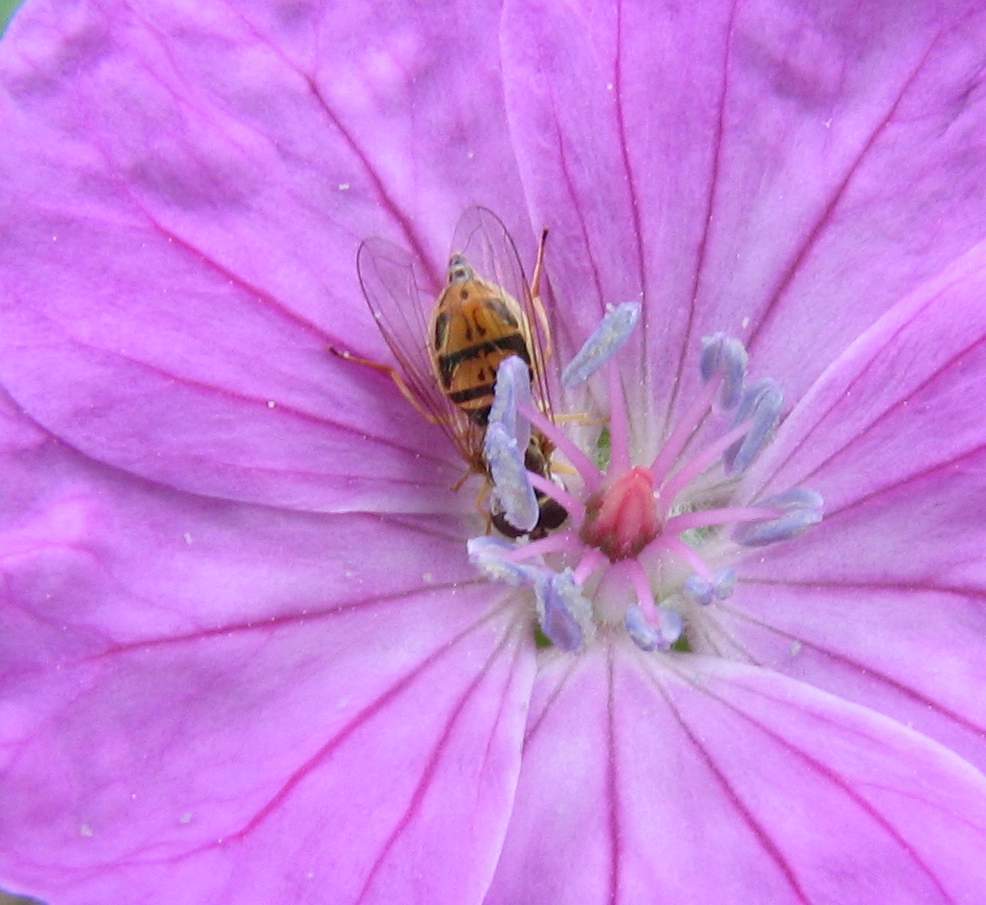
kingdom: Animalia
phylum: Arthropoda
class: Insecta
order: Diptera
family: Syrphidae
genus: Toxomerus
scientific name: Toxomerus marginatus
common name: Syrphid fly
